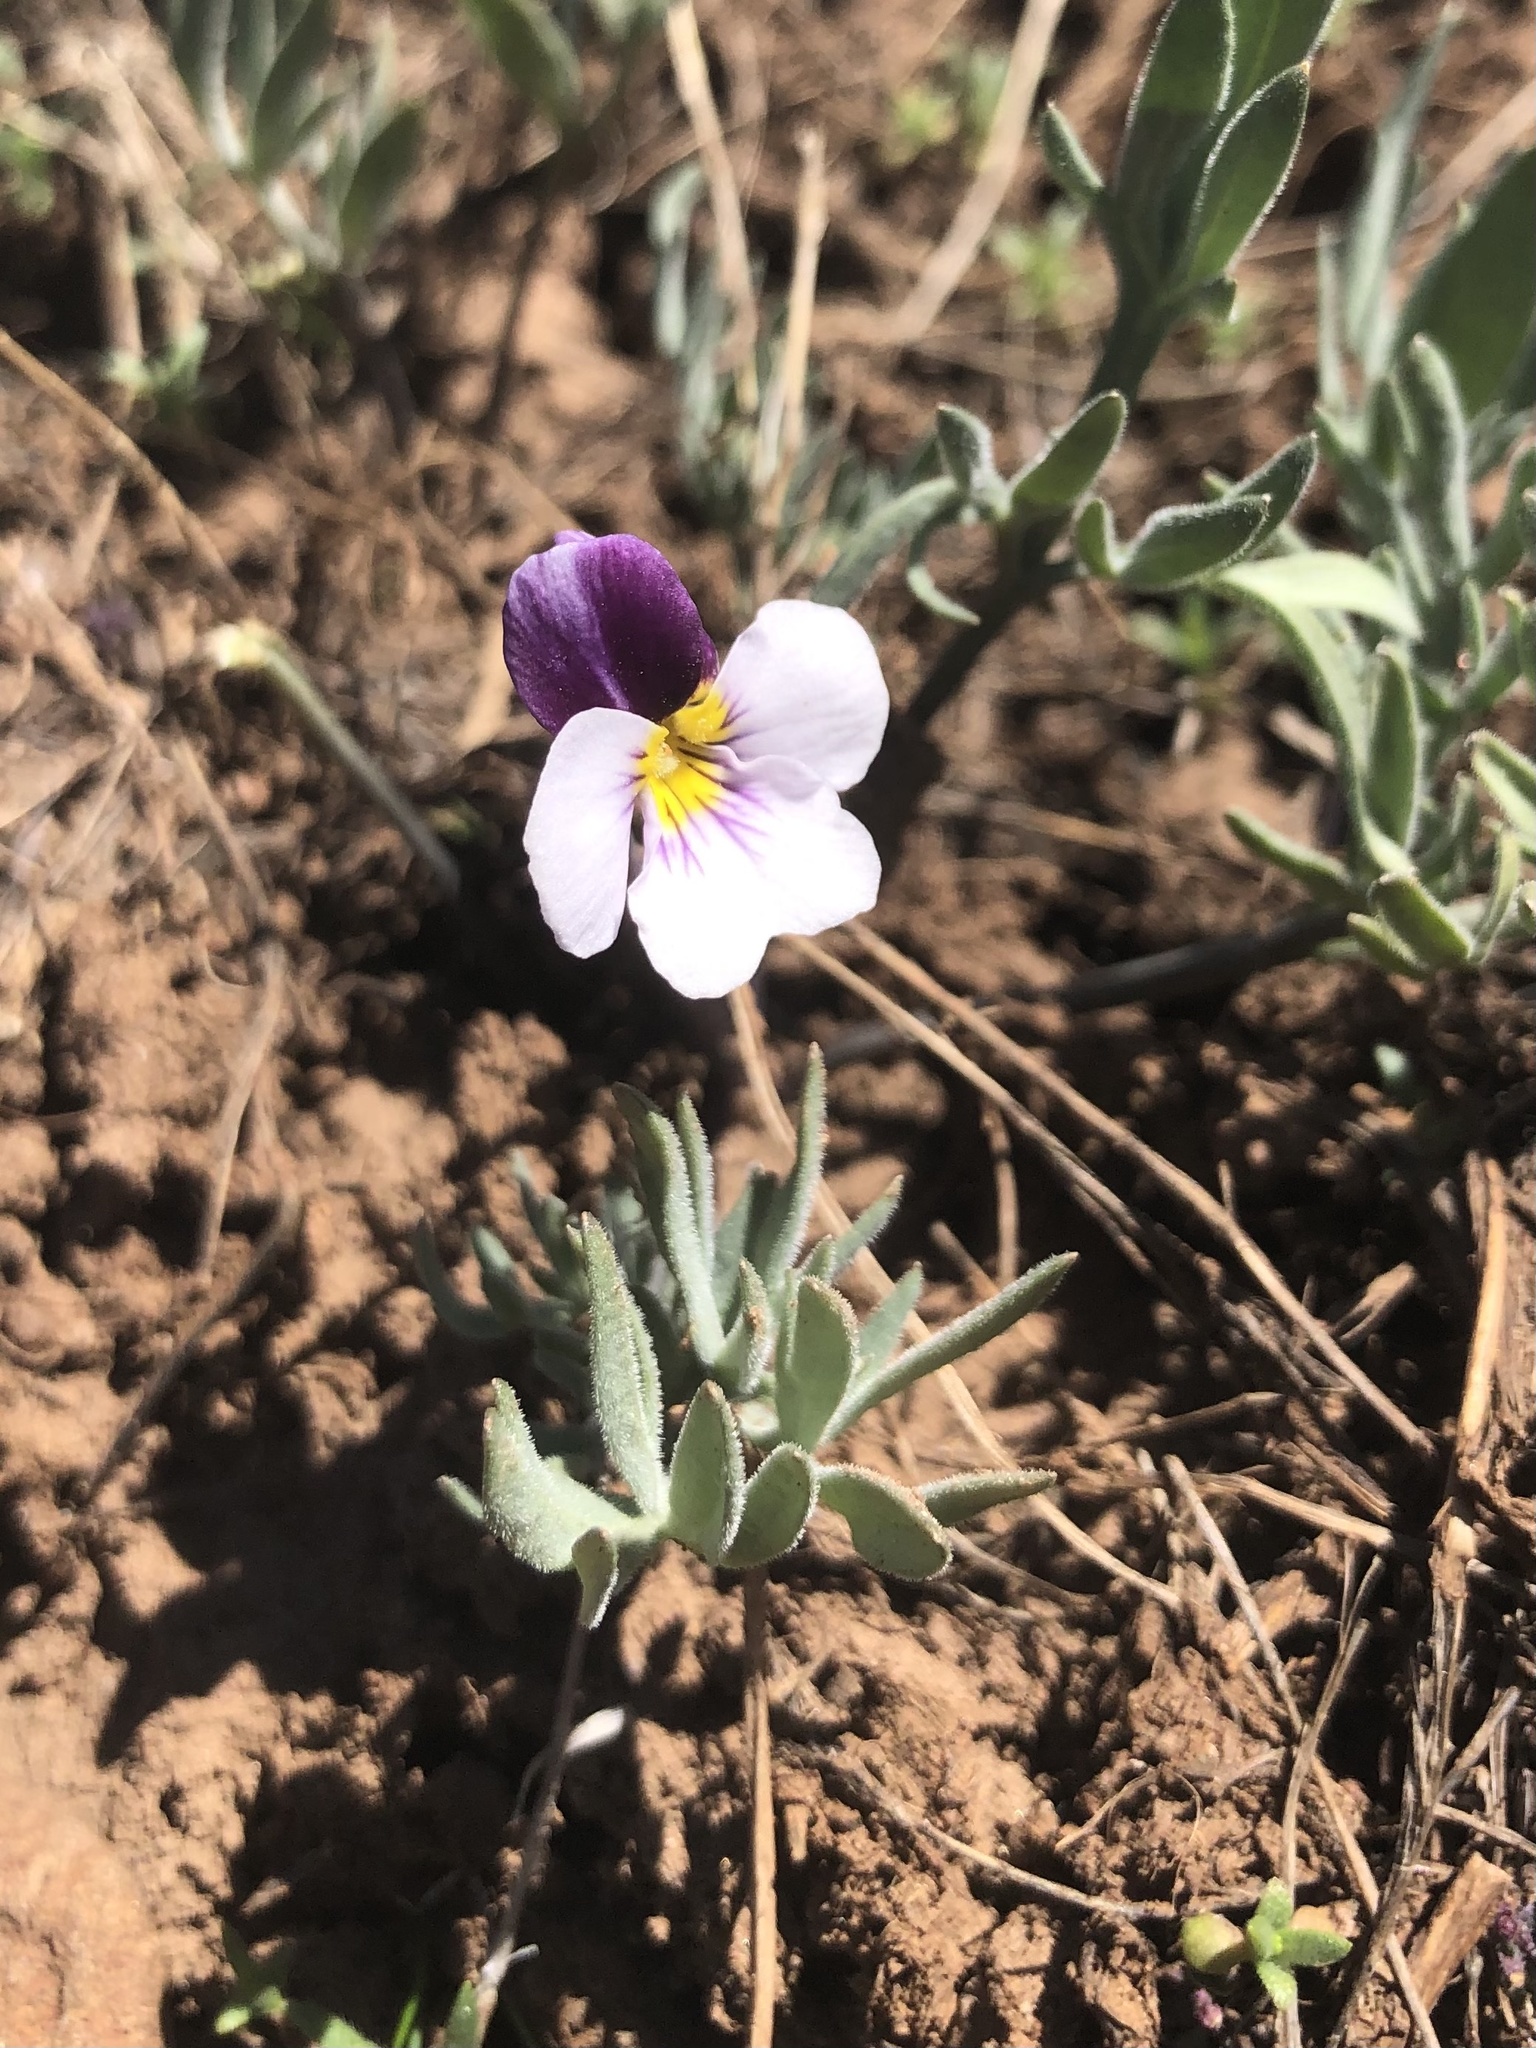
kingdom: Plantae
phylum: Tracheophyta
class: Magnoliopsida
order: Malpighiales
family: Violaceae
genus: Viola
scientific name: Viola beckwithii
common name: Beckwith's violet
